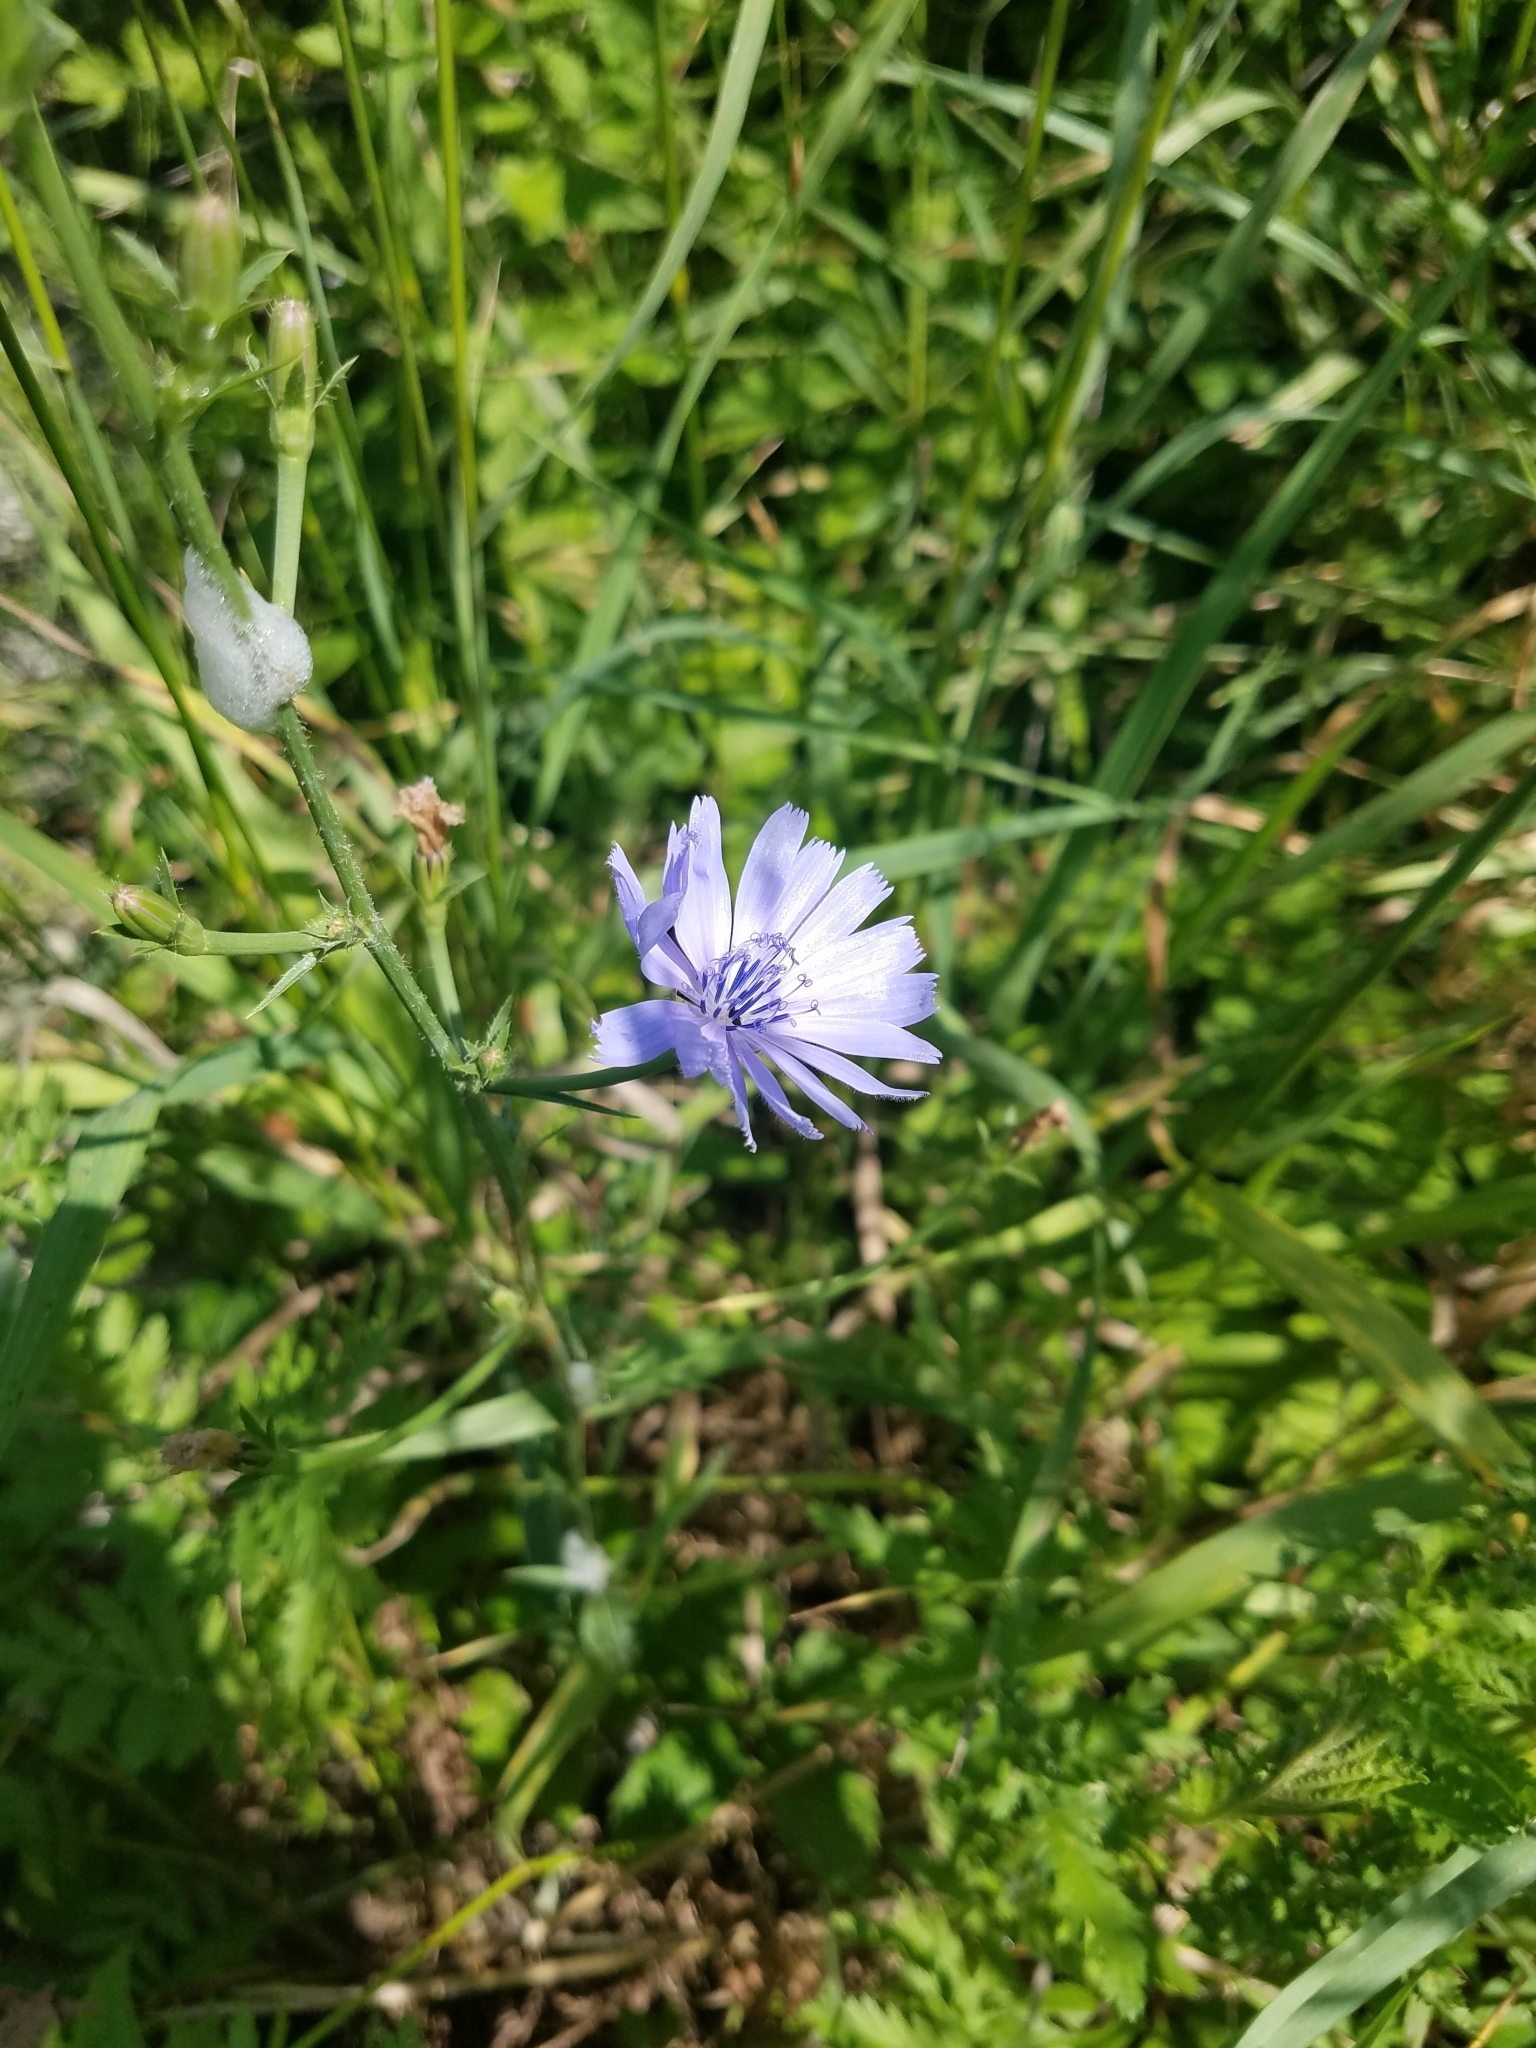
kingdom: Plantae
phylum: Tracheophyta
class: Magnoliopsida
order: Asterales
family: Asteraceae
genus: Cichorium
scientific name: Cichorium intybus
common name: Chicory
